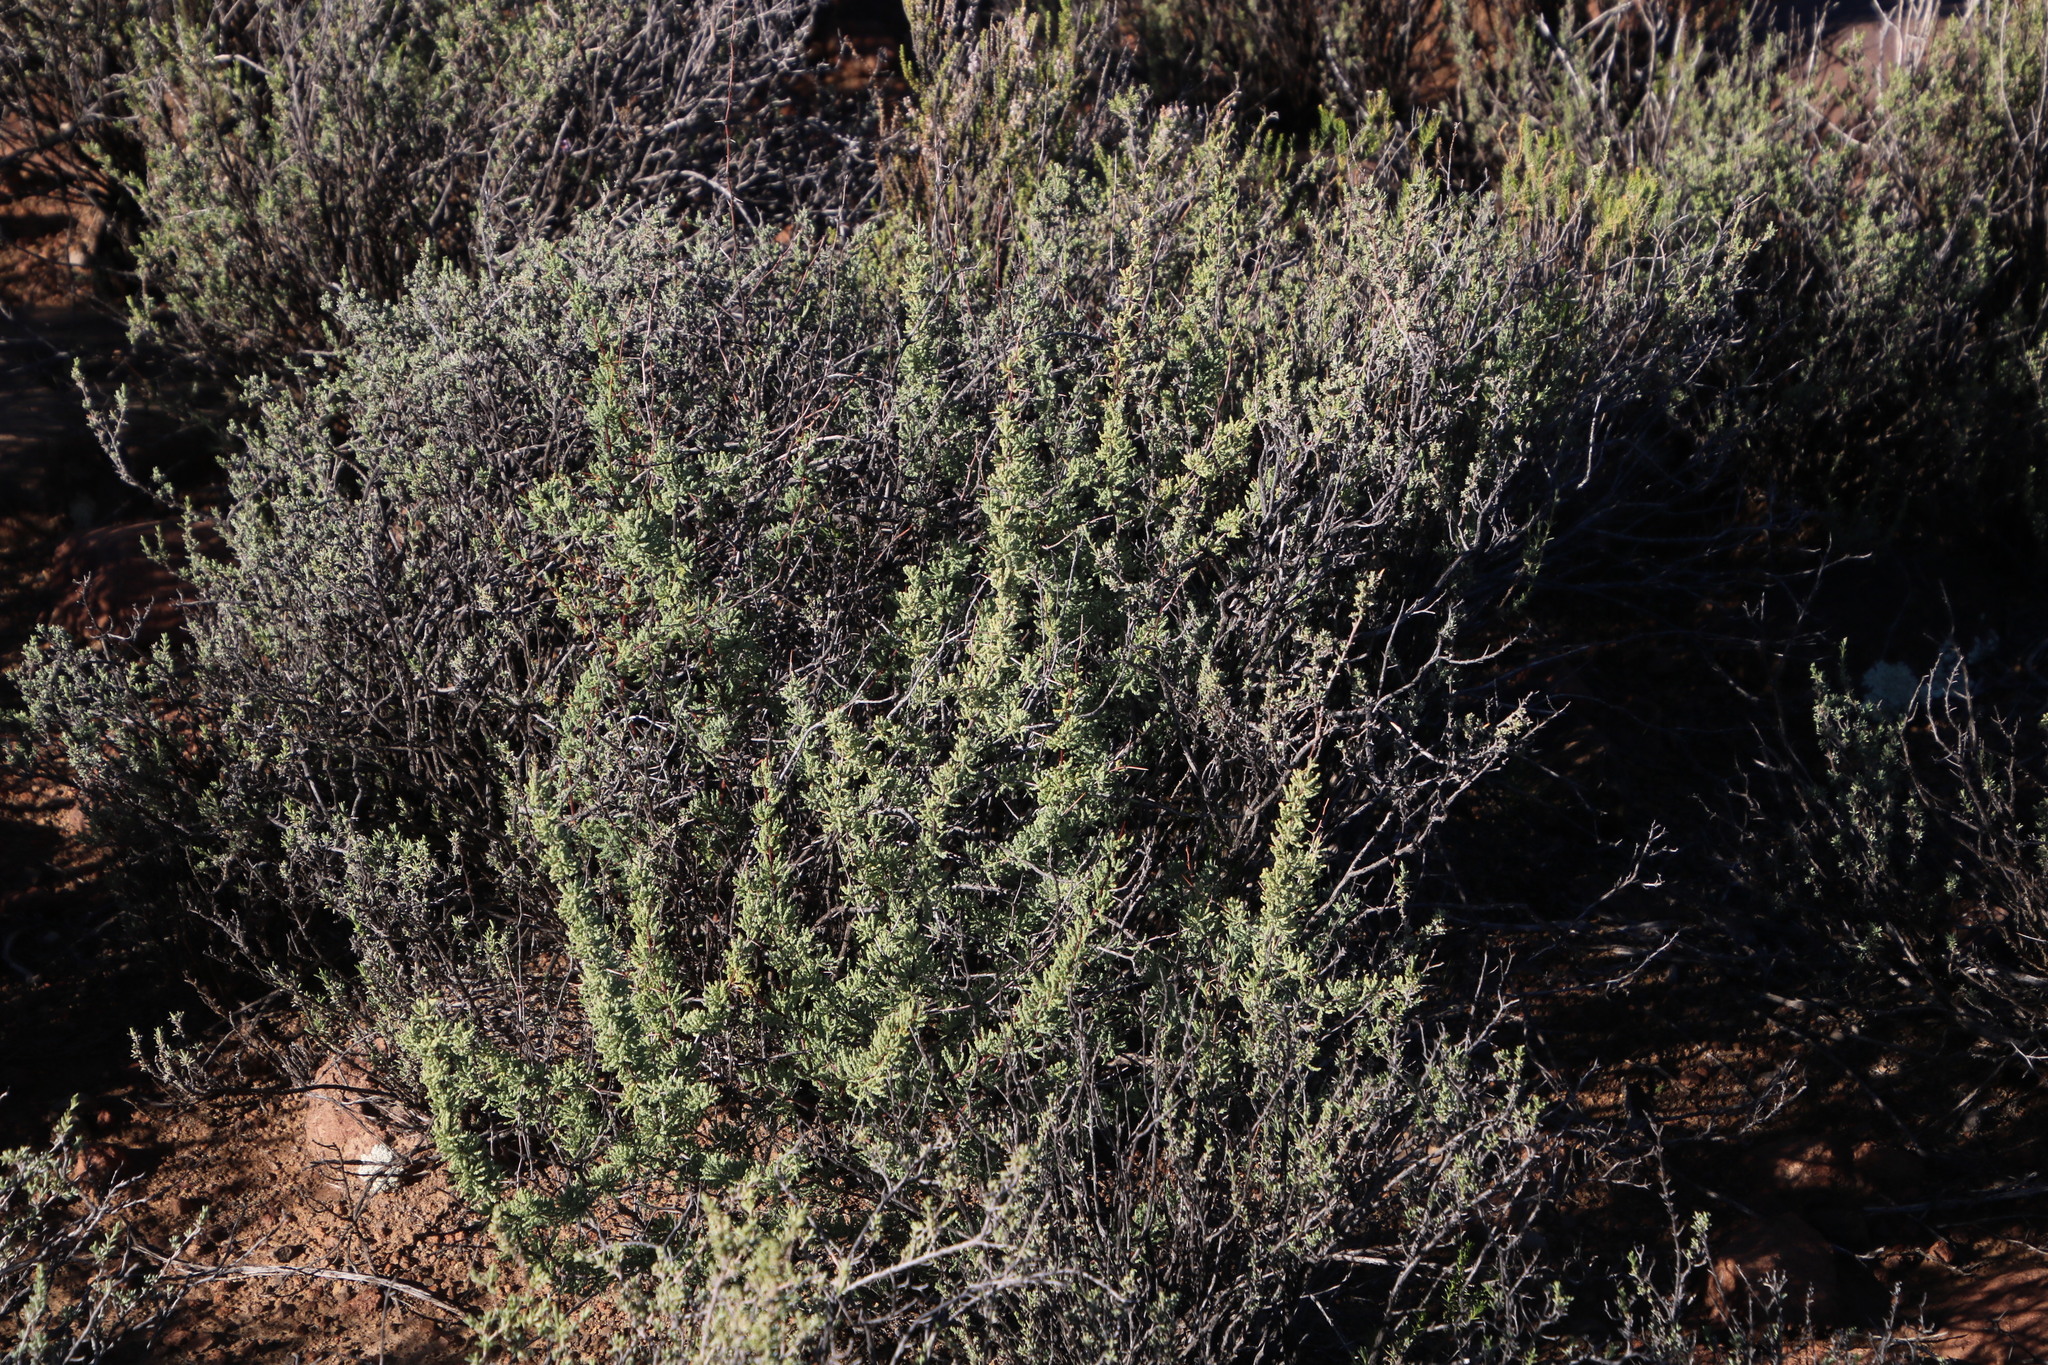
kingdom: Plantae
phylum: Tracheophyta
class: Liliopsida
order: Asparagales
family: Asparagaceae
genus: Asparagus
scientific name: Asparagus capensis
